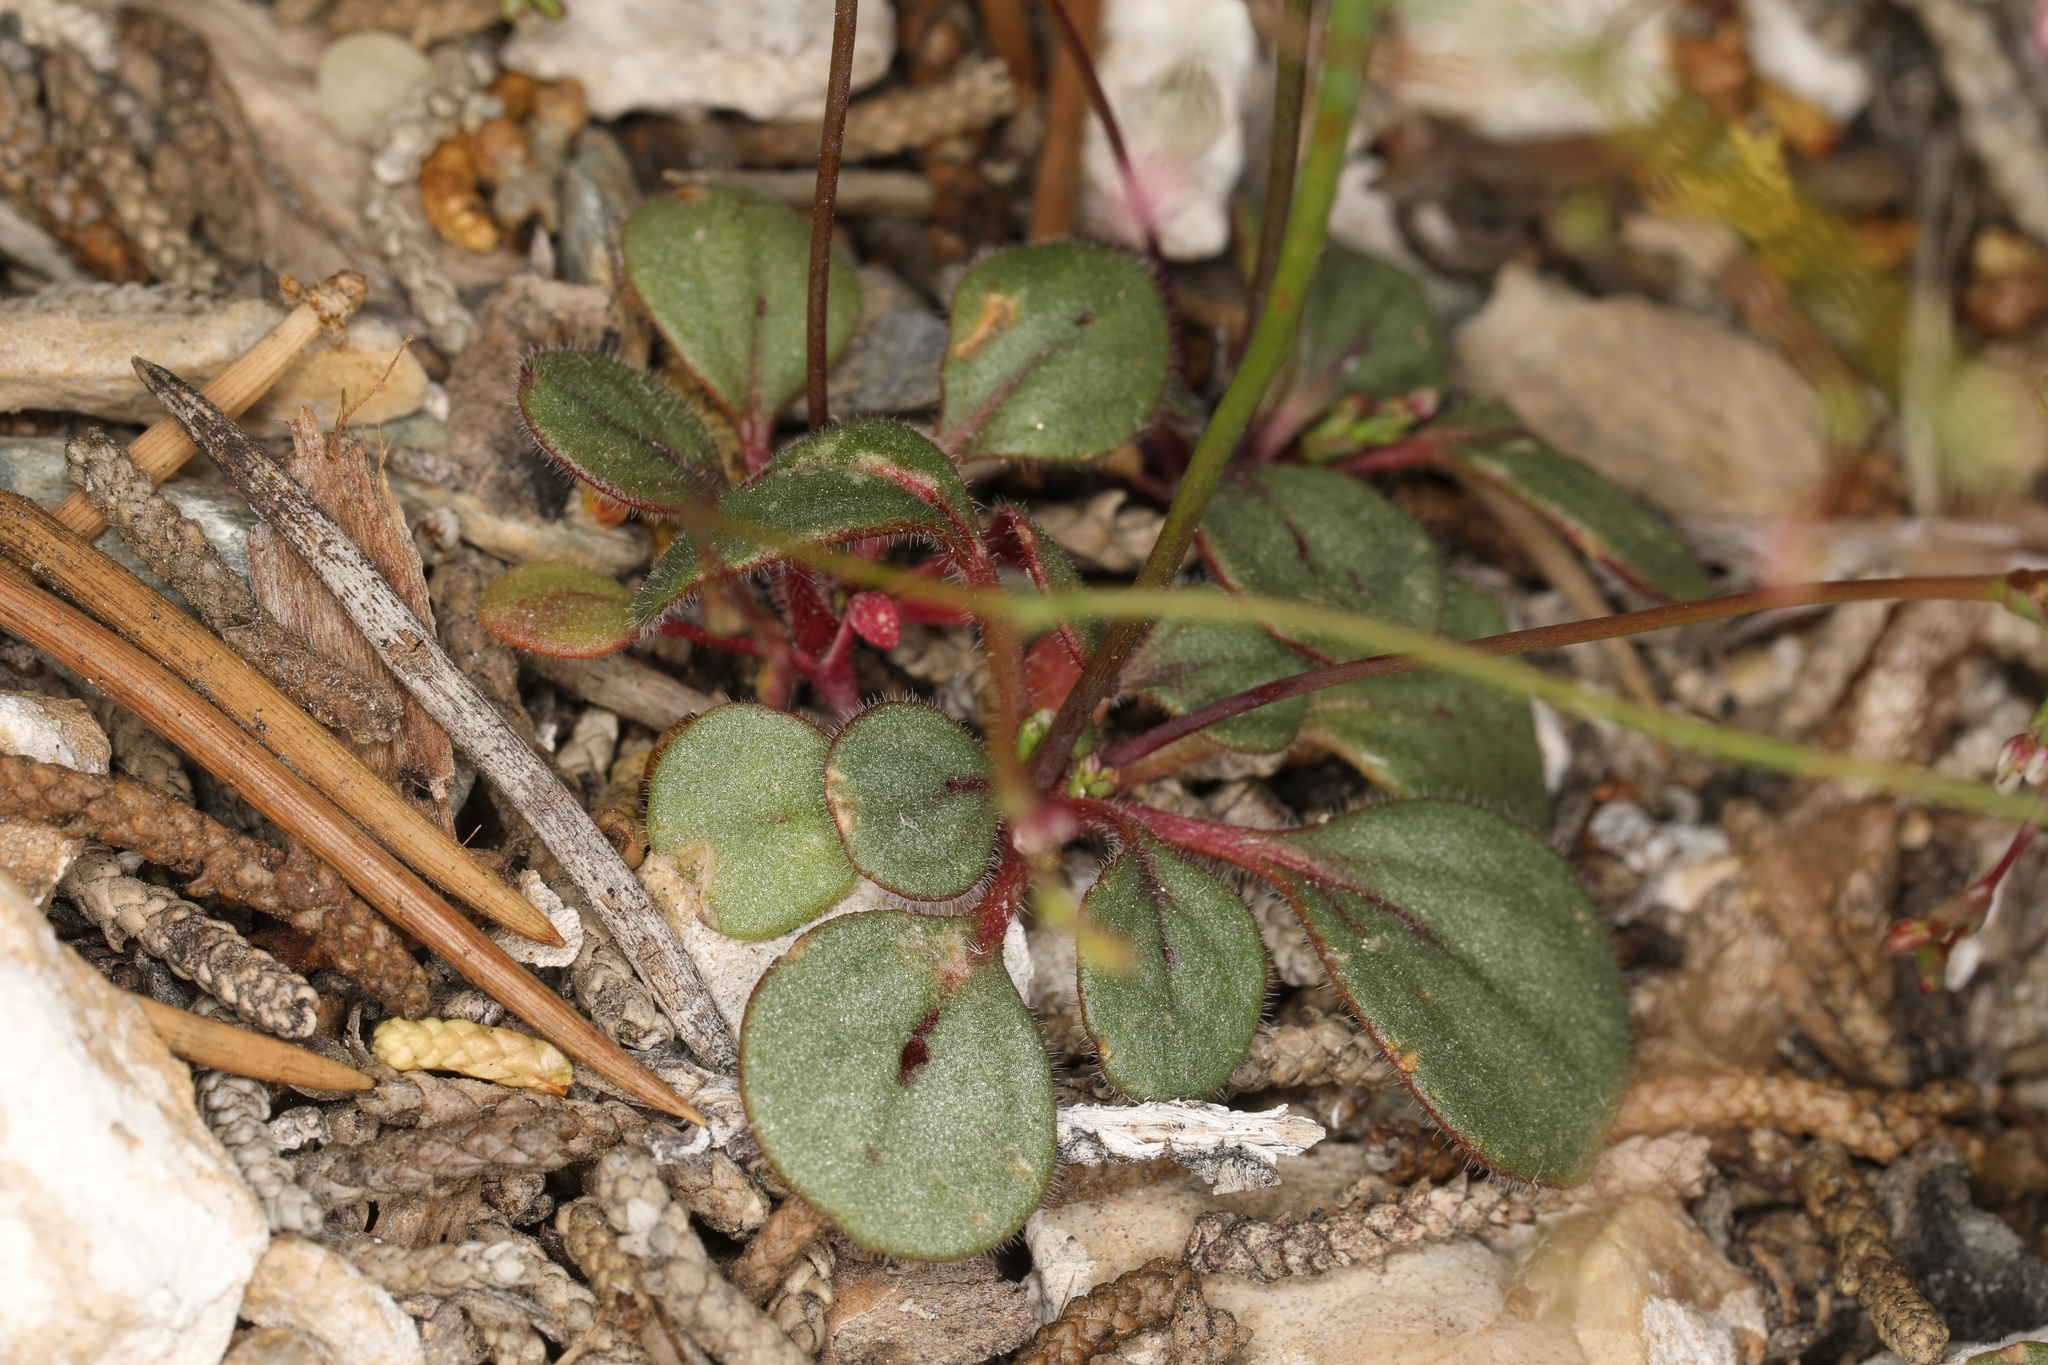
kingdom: Plantae
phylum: Tracheophyta
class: Magnoliopsida
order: Caryophyllales
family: Polygonaceae
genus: Eriogonum
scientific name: Eriogonum esmeraldense
